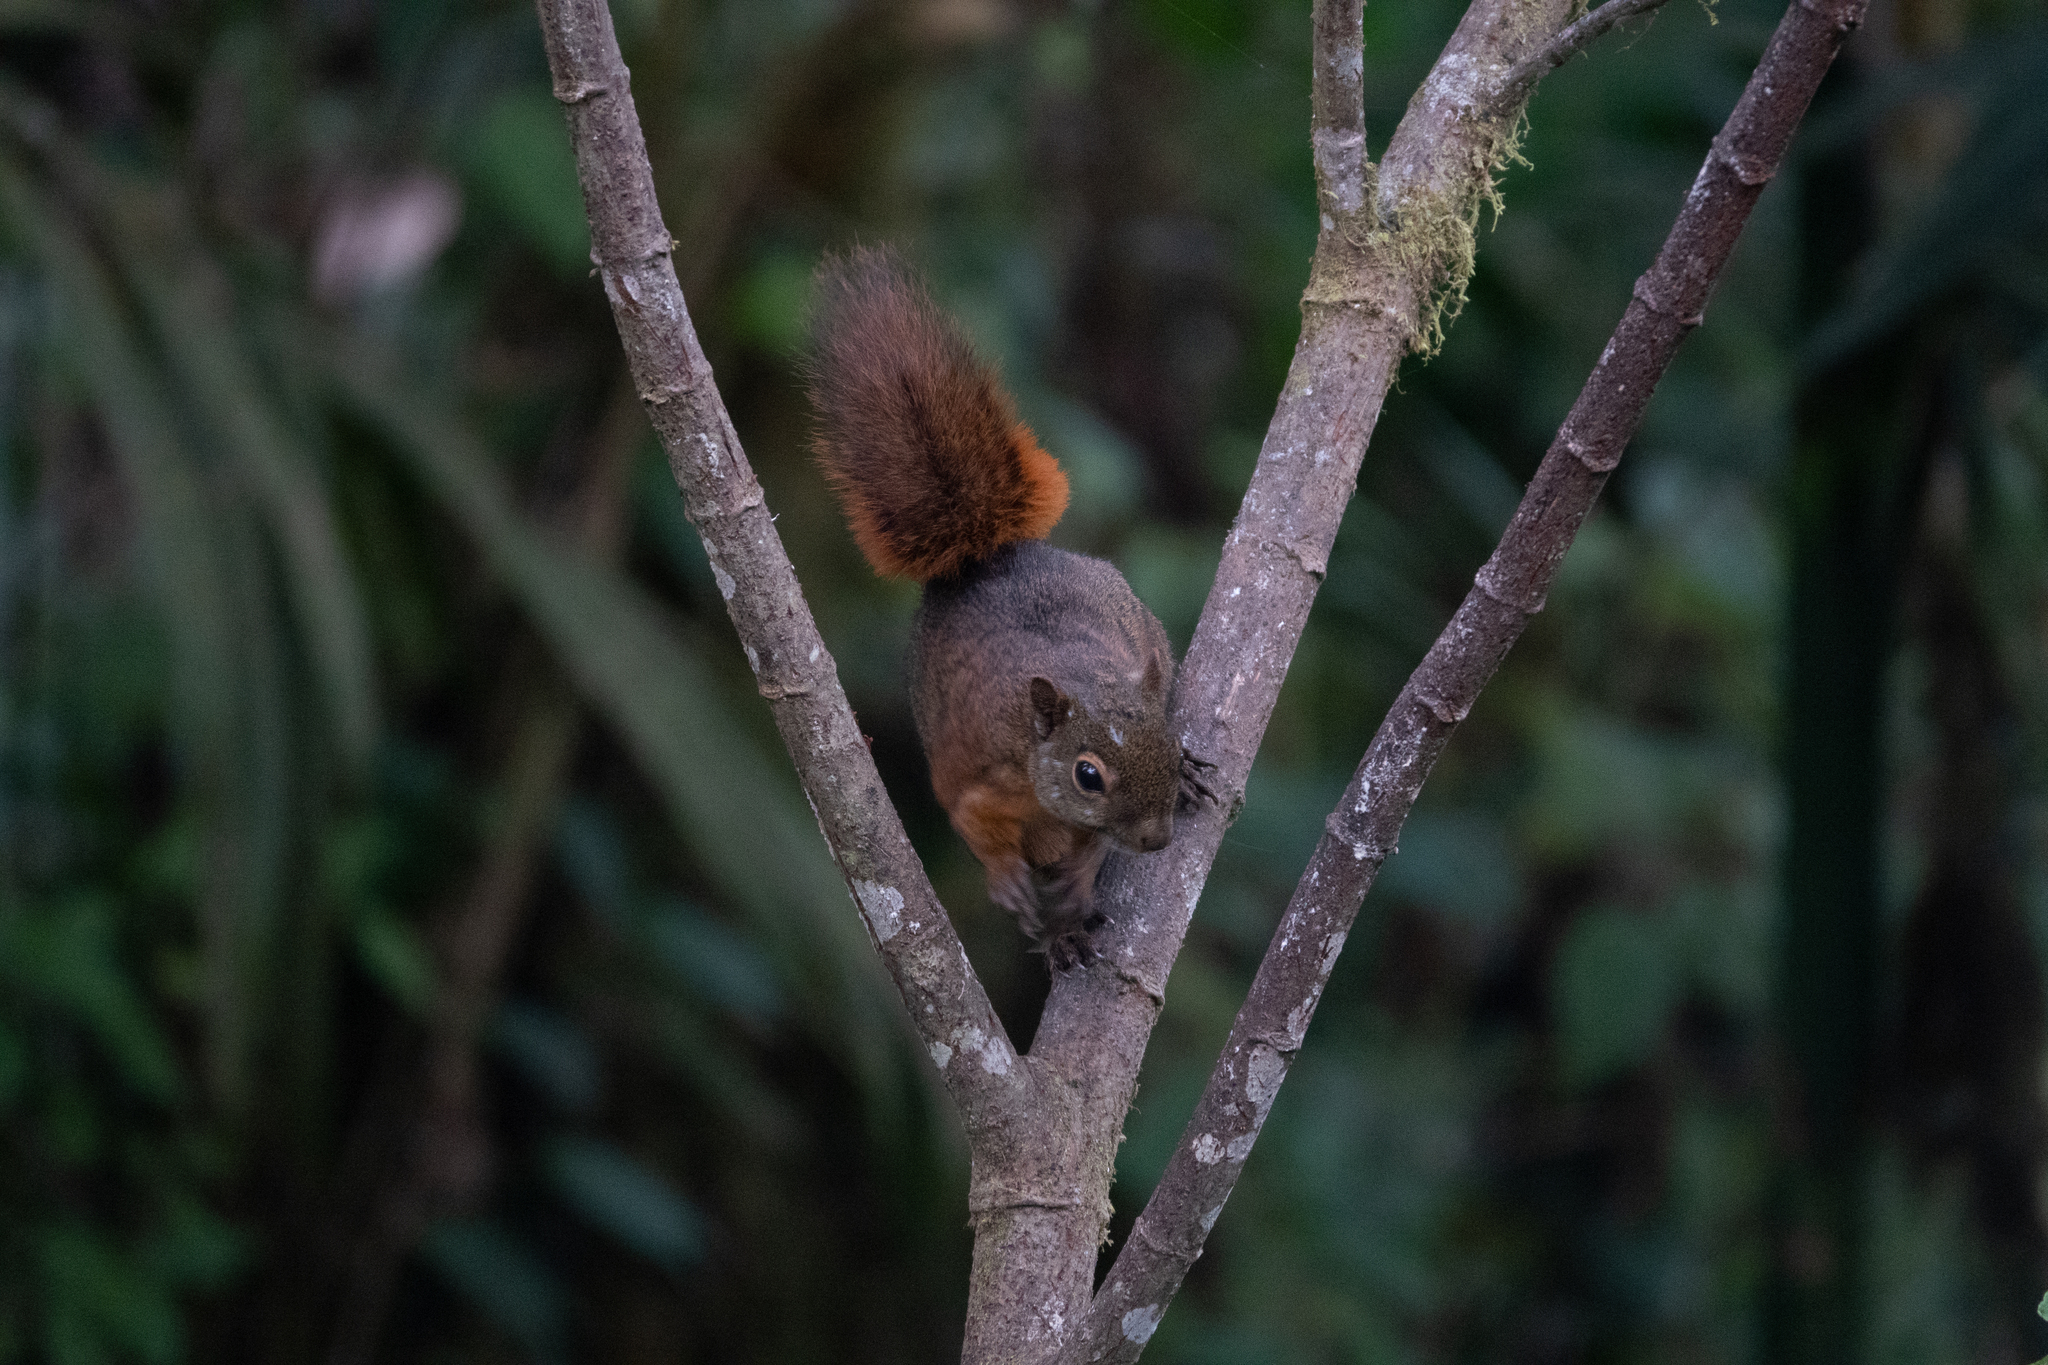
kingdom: Animalia
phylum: Chordata
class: Mammalia
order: Rodentia
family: Sciuridae
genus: Sciurus
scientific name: Sciurus granatensis
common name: Red-tailed squirrel
